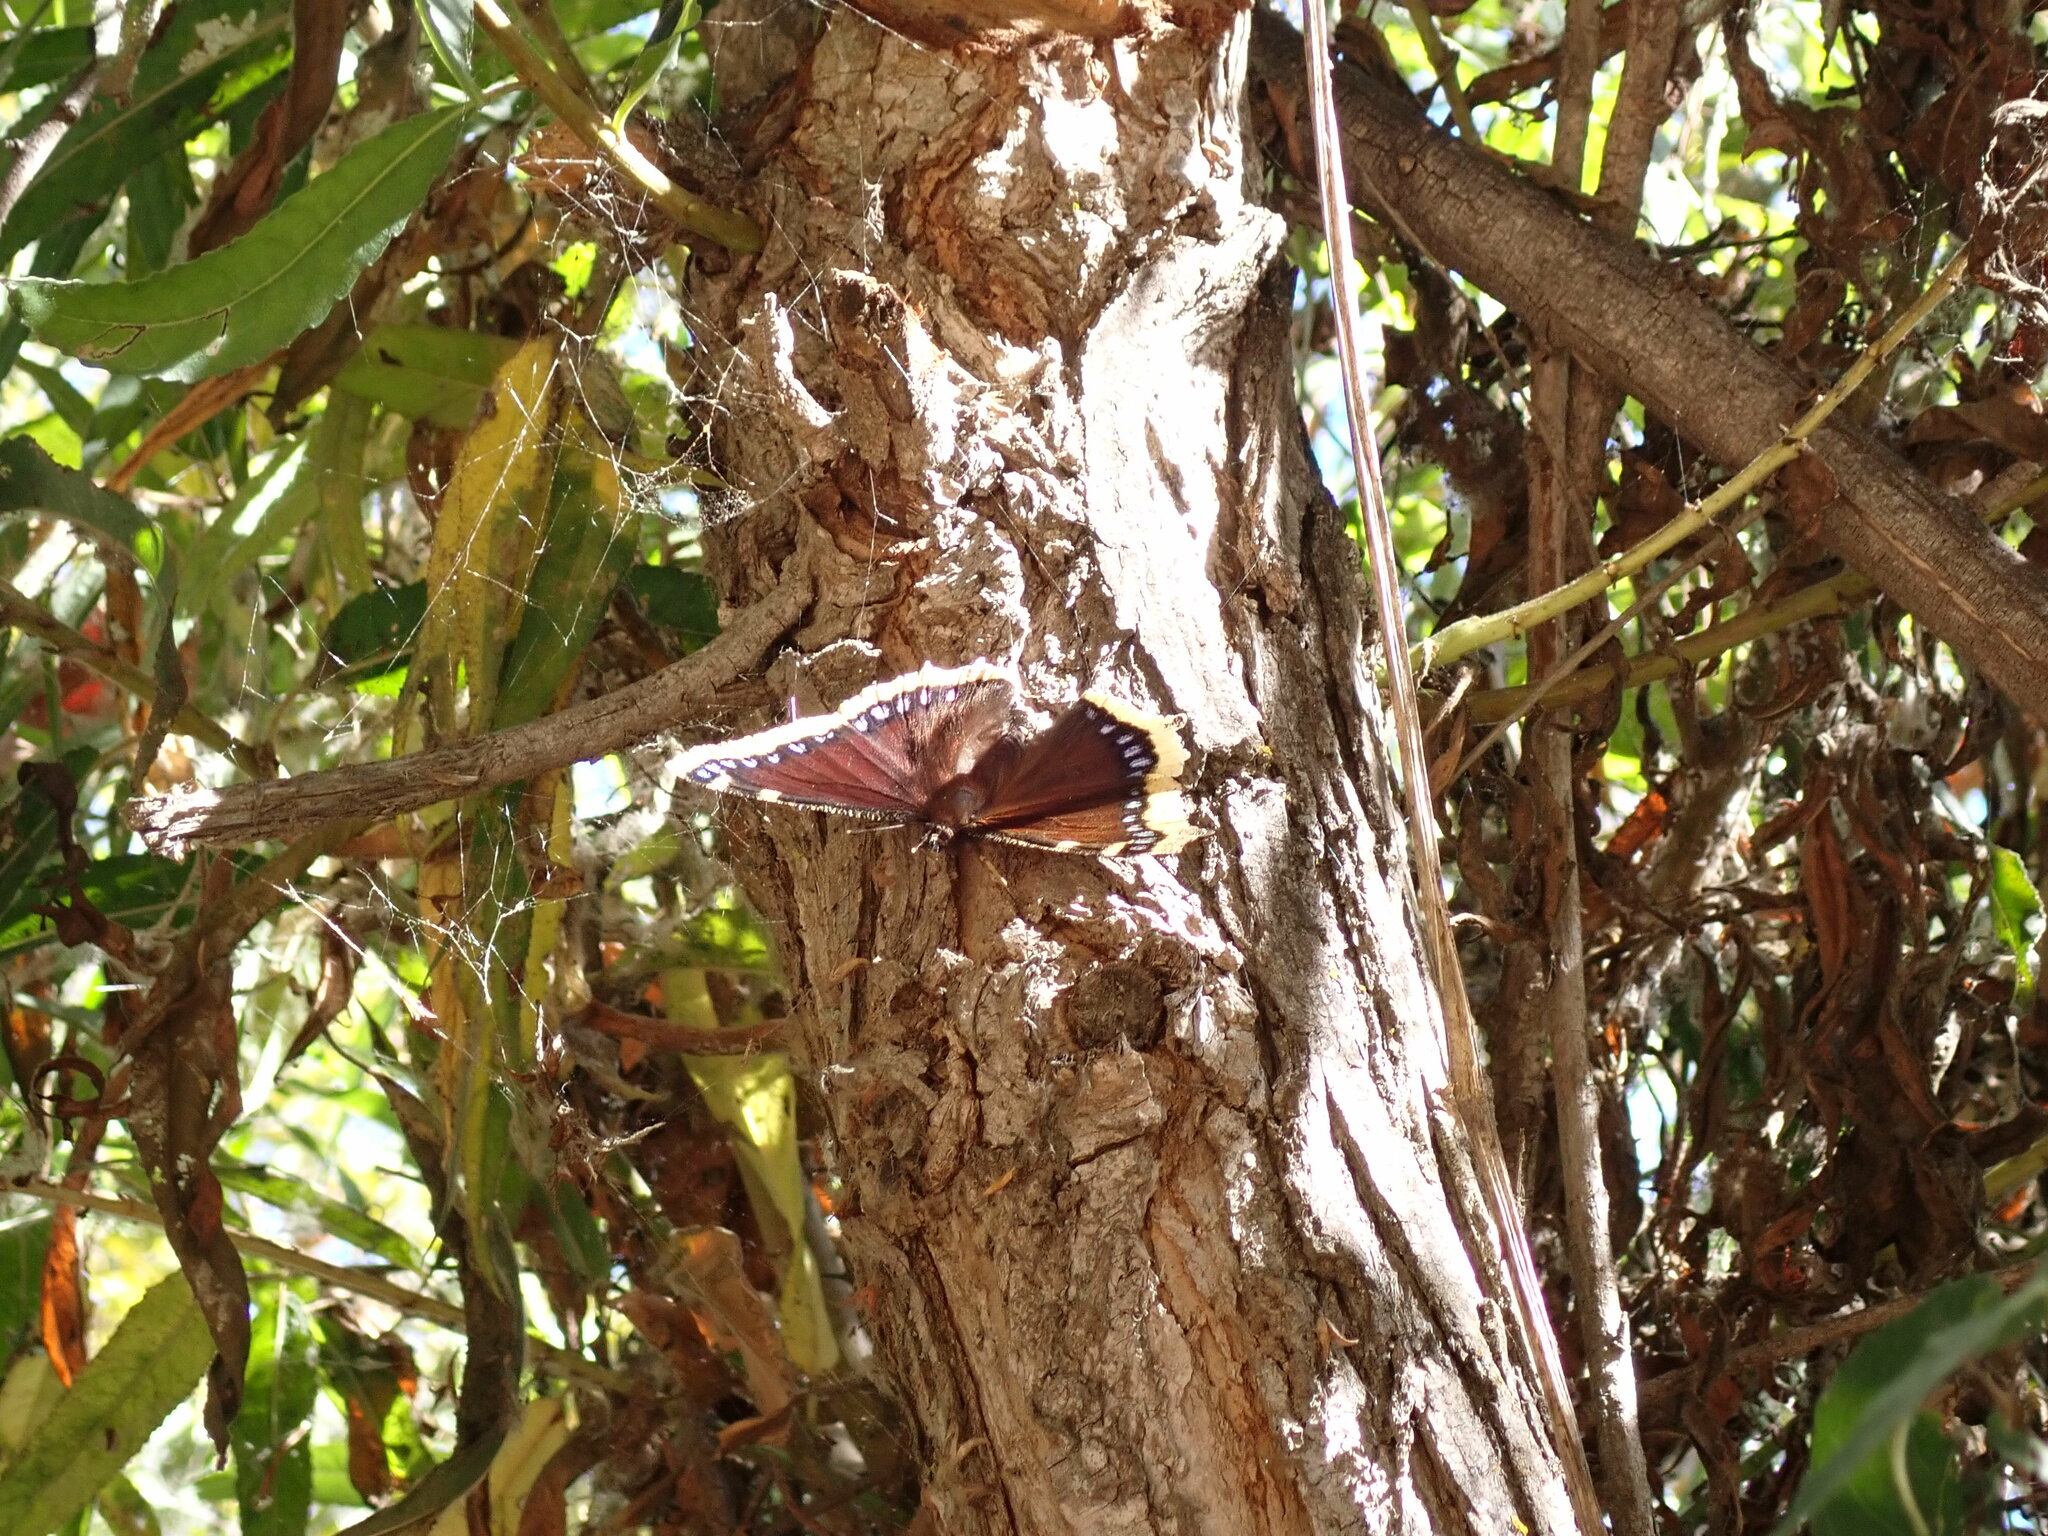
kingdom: Animalia
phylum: Arthropoda
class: Insecta
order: Lepidoptera
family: Nymphalidae
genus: Nymphalis
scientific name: Nymphalis antiopa
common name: Camberwell beauty
